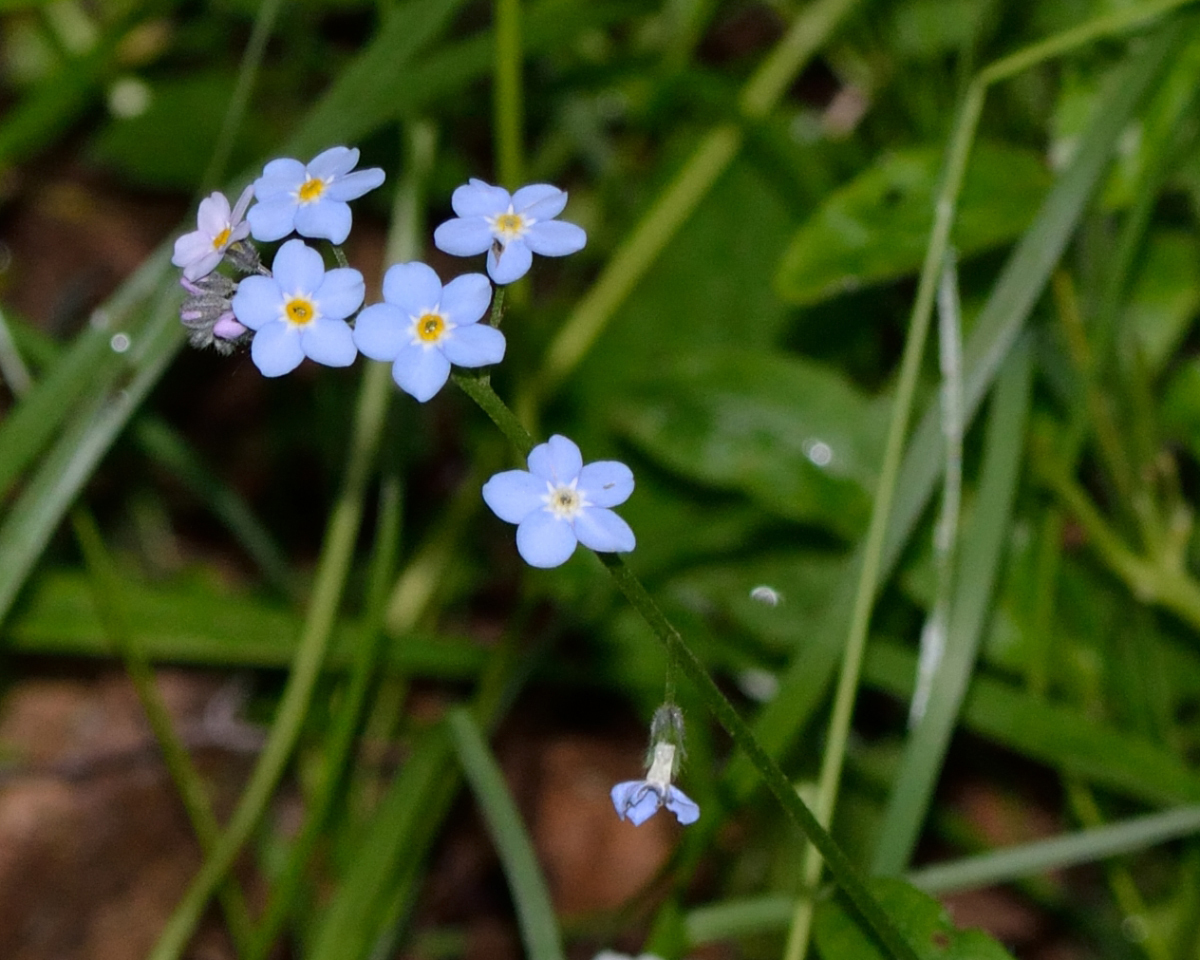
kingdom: Plantae
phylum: Tracheophyta
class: Magnoliopsida
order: Boraginales
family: Boraginaceae
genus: Myosotis
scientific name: Myosotis sylvatica
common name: Wood forget-me-not
